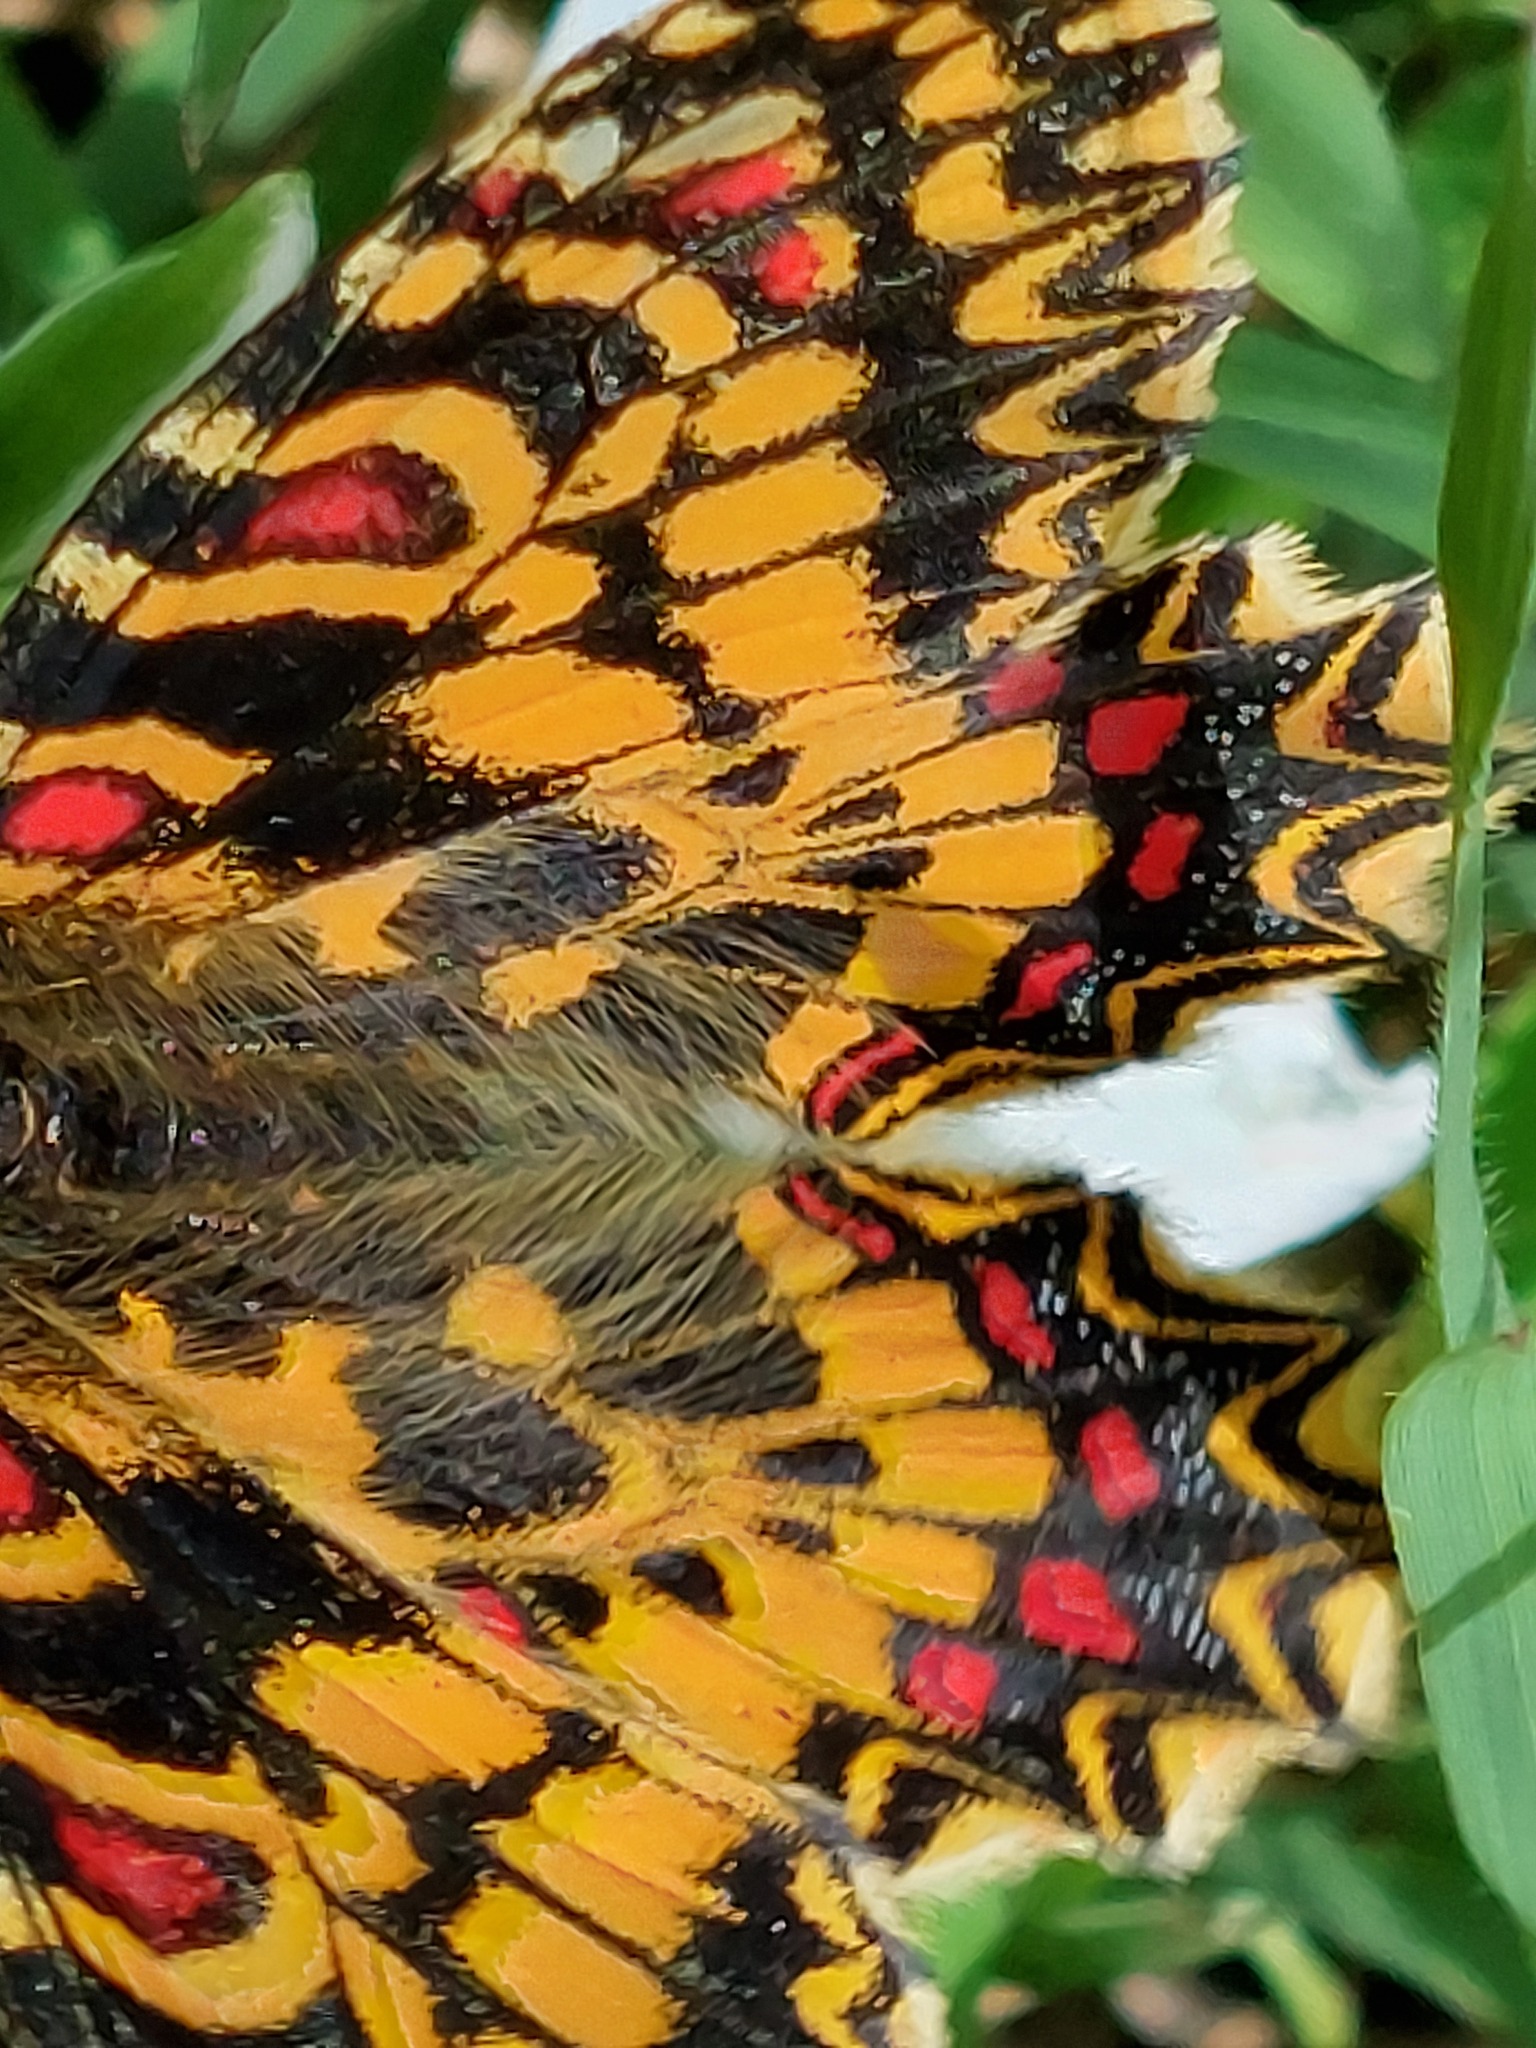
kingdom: Animalia
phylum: Arthropoda
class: Insecta
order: Lepidoptera
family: Papilionidae
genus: Zerynthia
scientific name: Zerynthia rumina
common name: Spanish festoon
